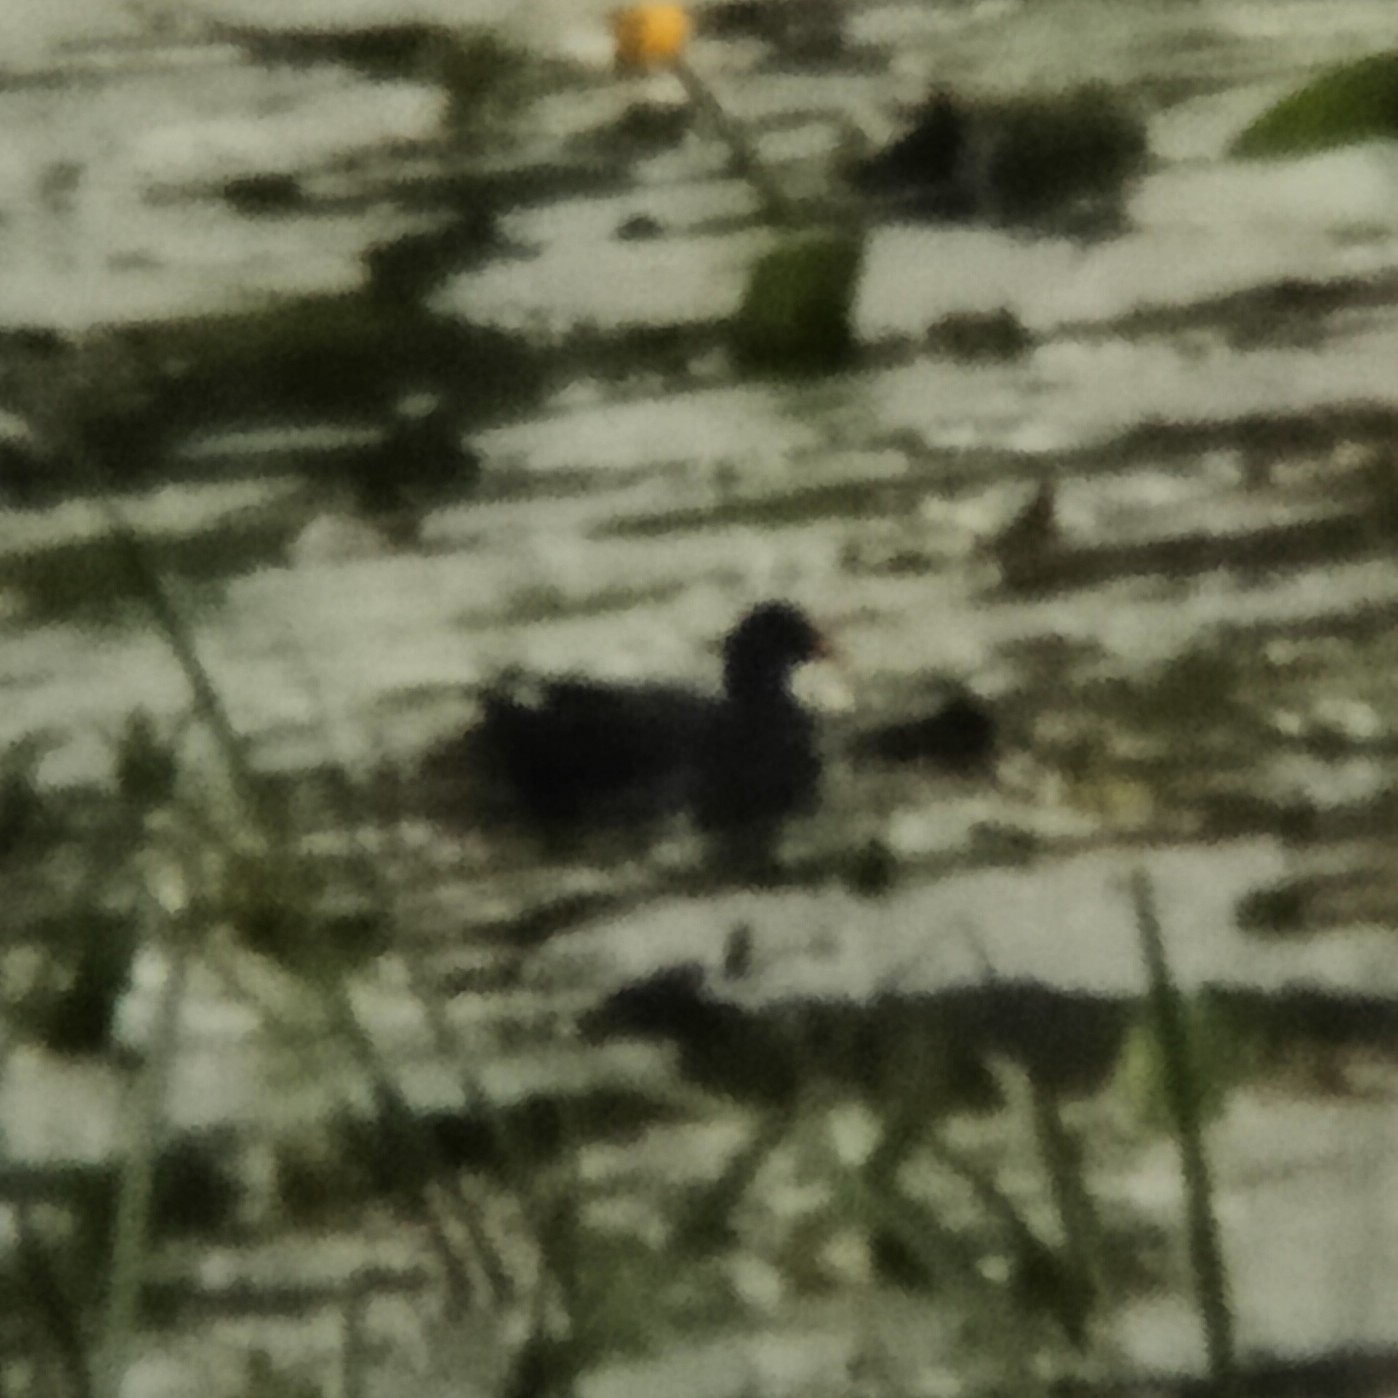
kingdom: Animalia
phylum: Chordata
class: Aves
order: Gruiformes
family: Rallidae
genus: Gallinula
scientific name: Gallinula chloropus
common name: Common moorhen
